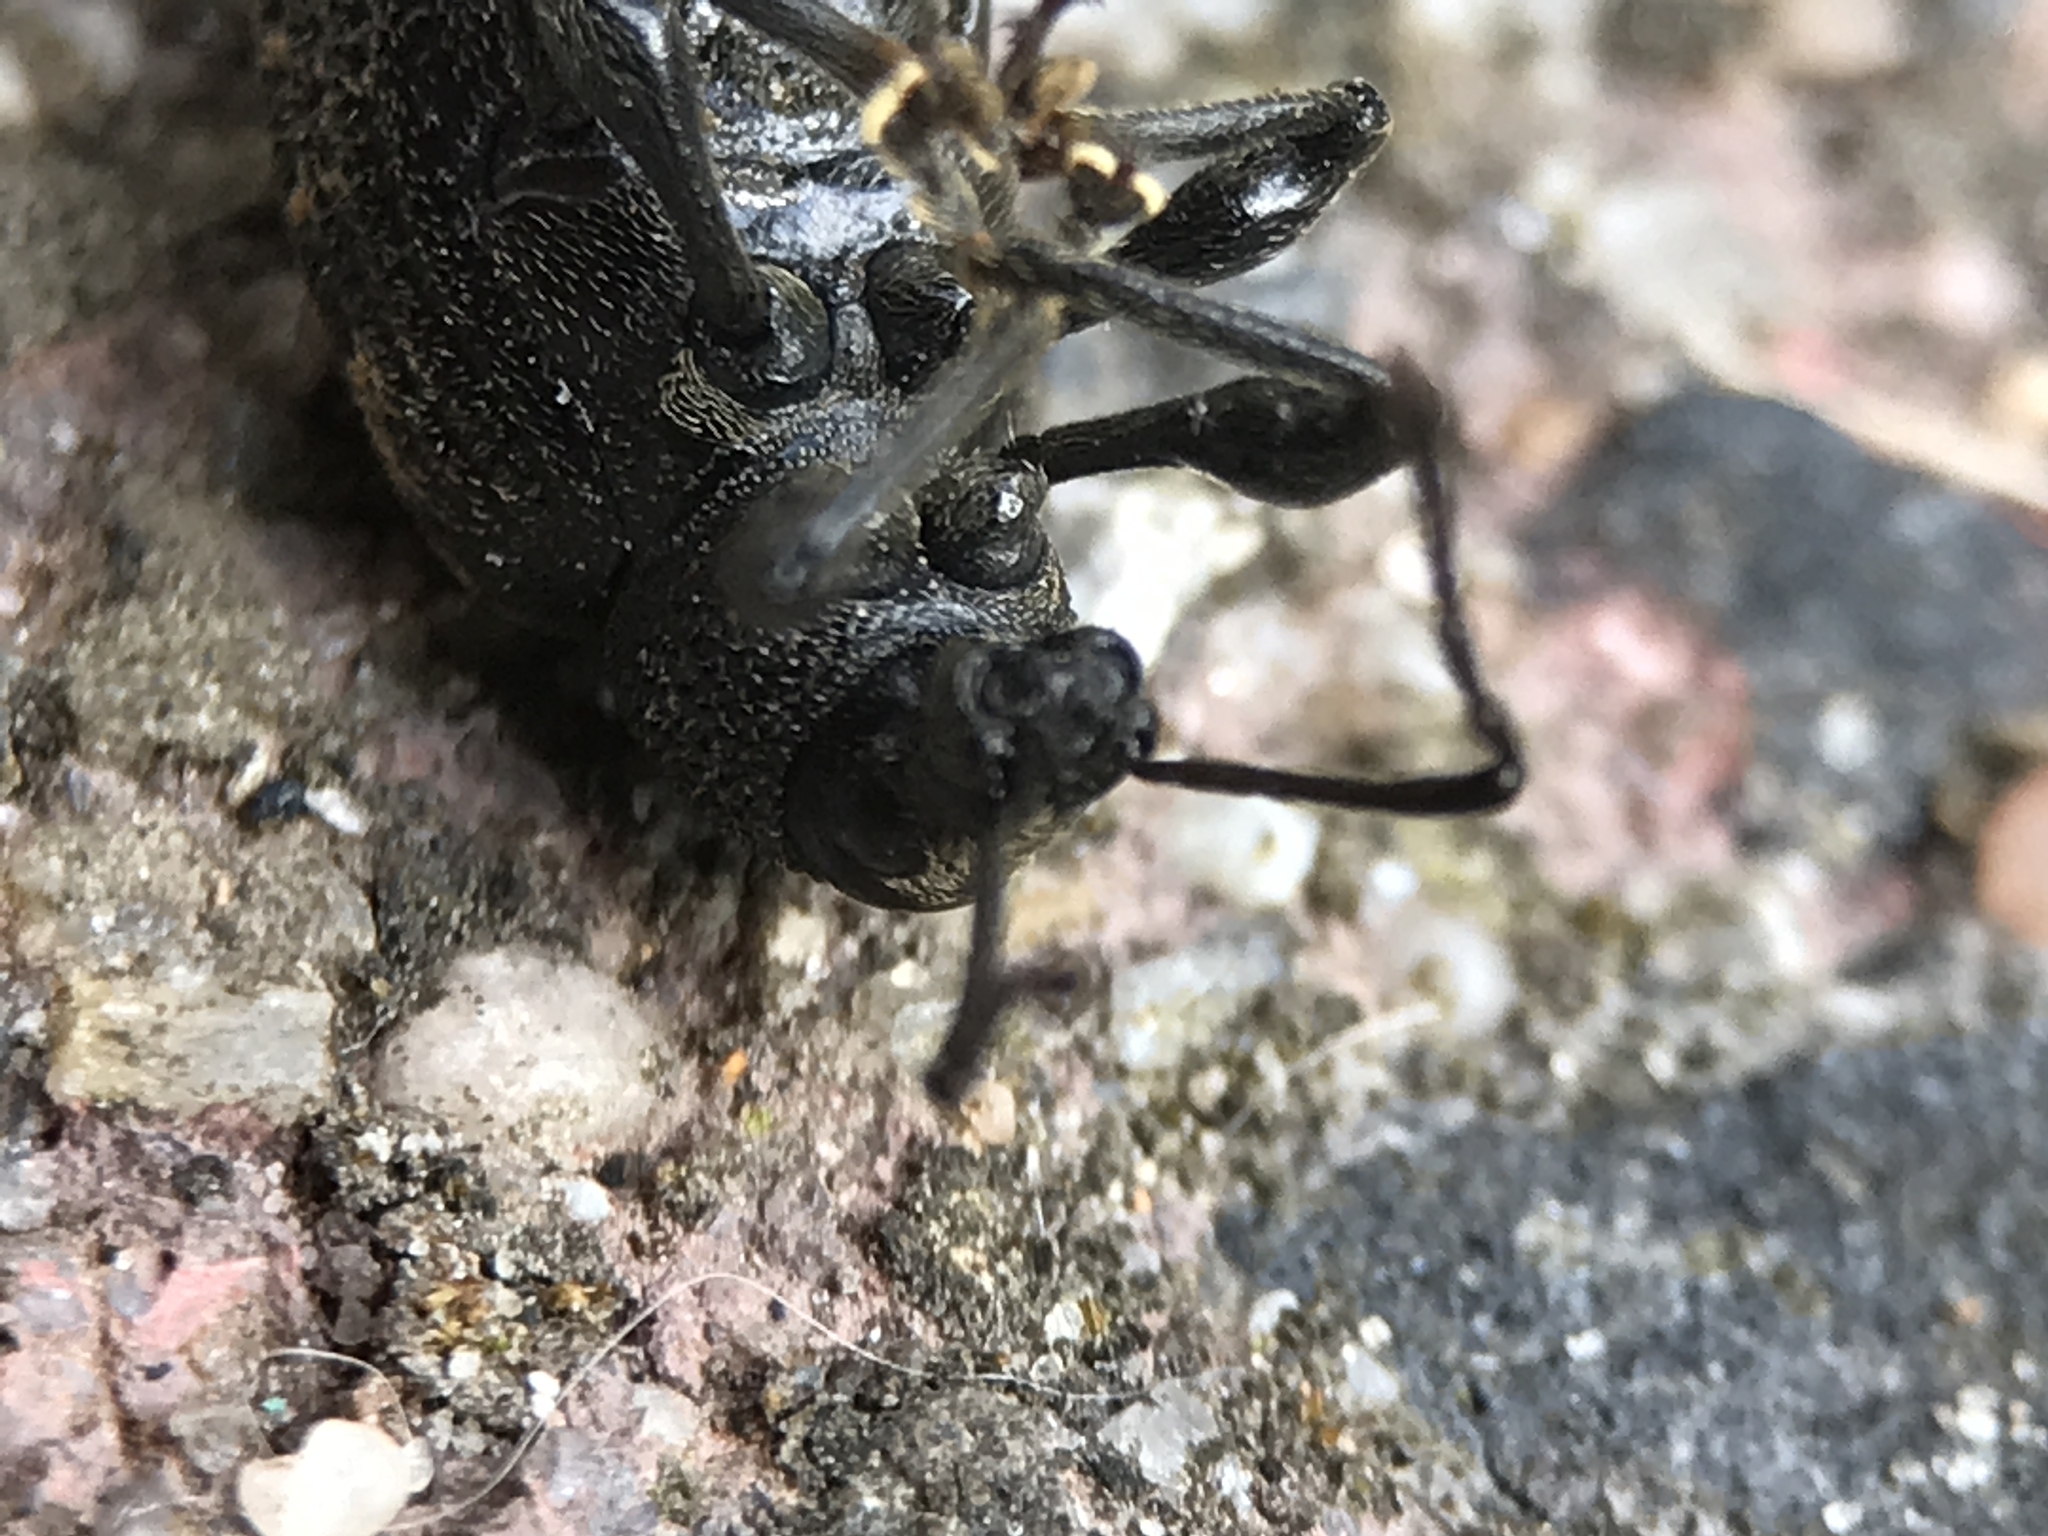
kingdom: Animalia
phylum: Arthropoda
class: Insecta
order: Coleoptera
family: Curculionidae
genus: Otiorhynchus
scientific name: Otiorhynchus sulcatus
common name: Black vine weevil
